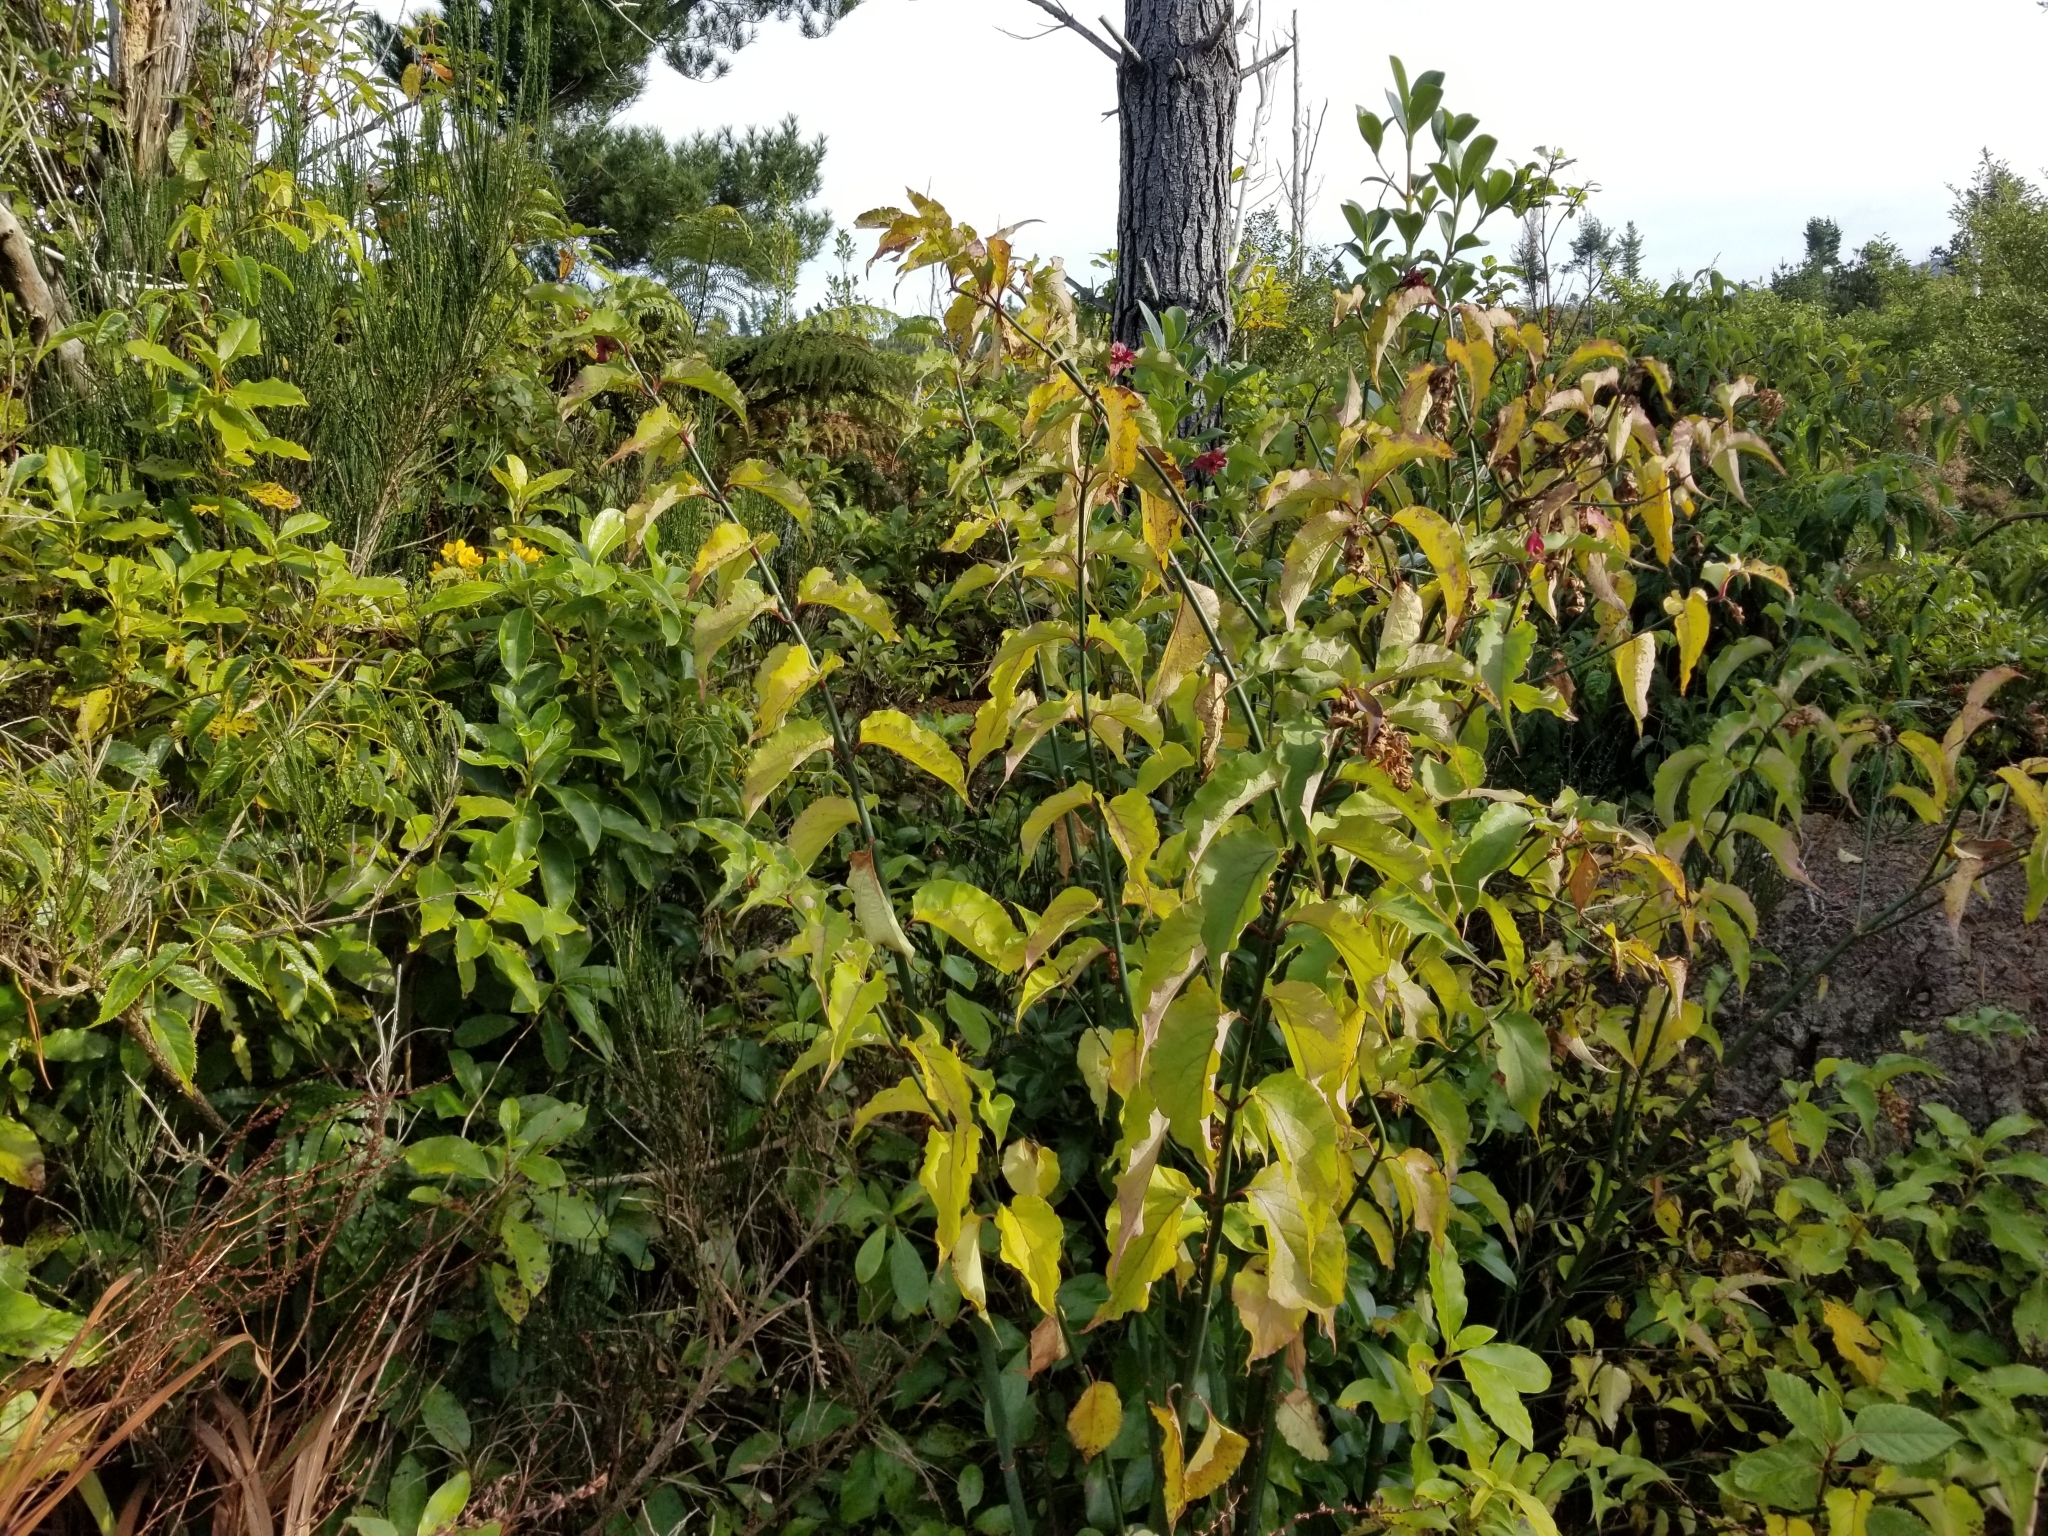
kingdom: Plantae
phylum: Tracheophyta
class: Magnoliopsida
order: Dipsacales
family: Caprifoliaceae
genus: Leycesteria
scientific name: Leycesteria formosa
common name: Himalayan honeysuckle
